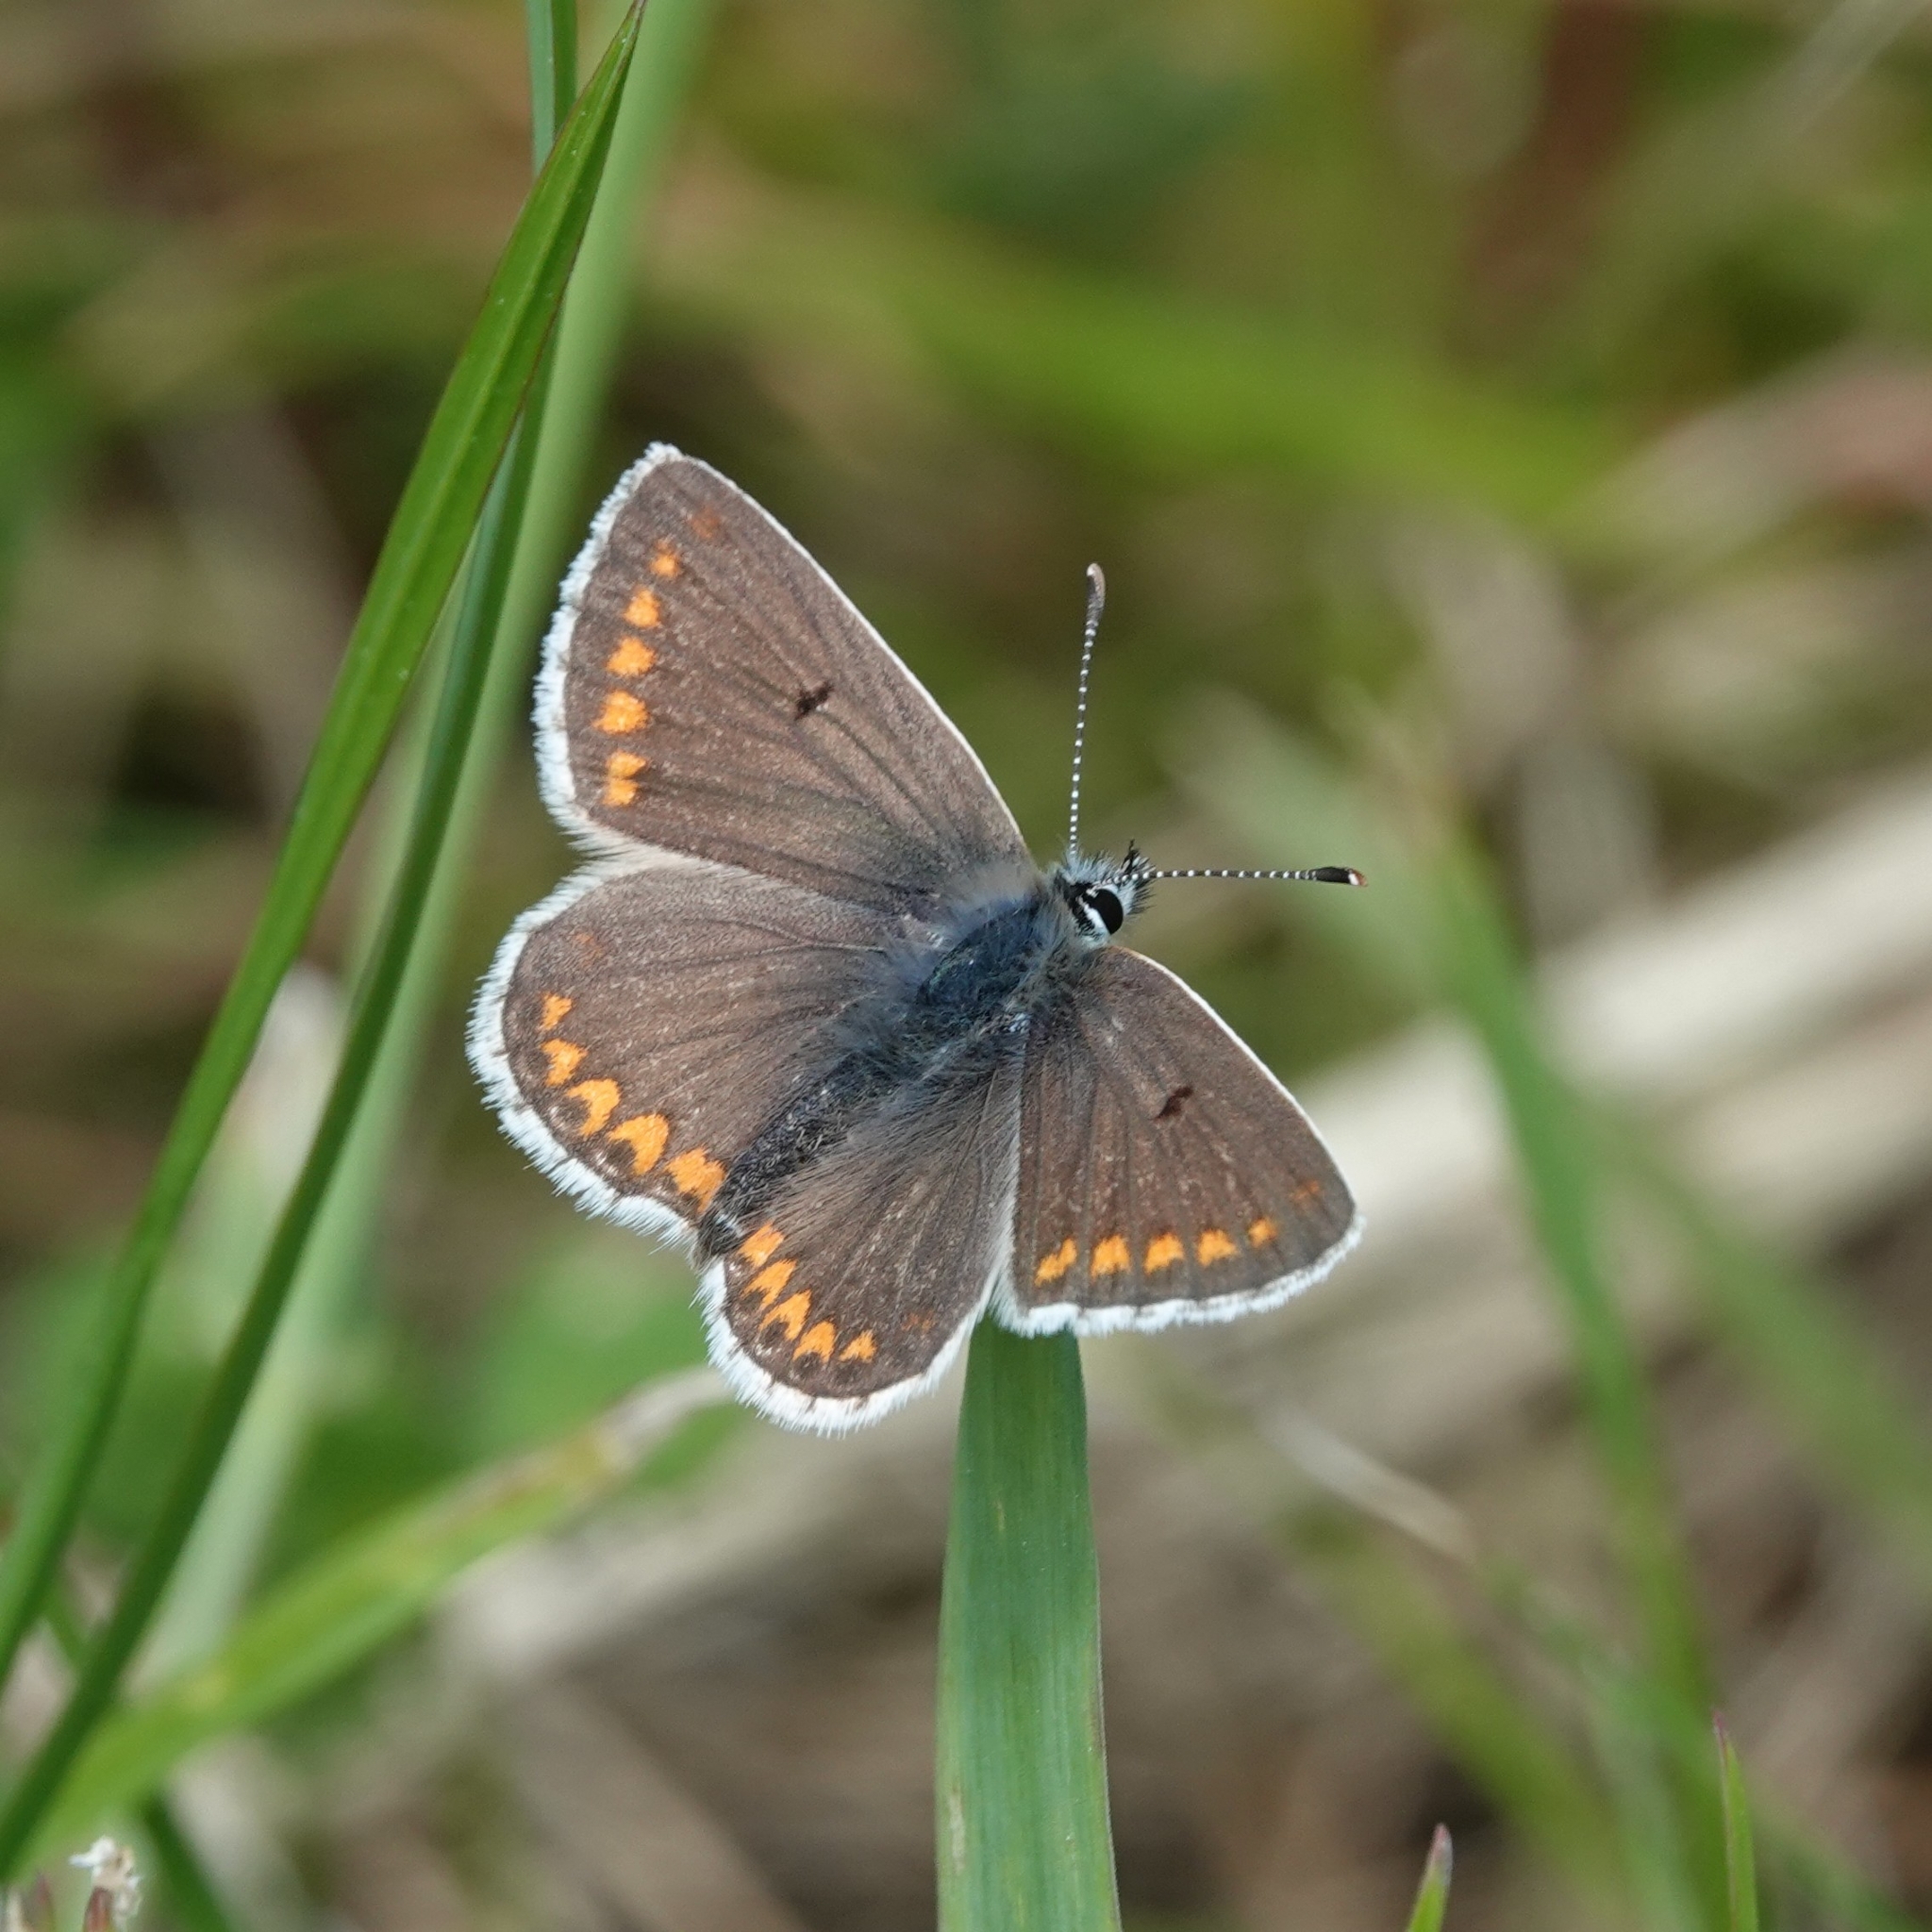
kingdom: Animalia
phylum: Arthropoda
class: Insecta
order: Lepidoptera
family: Lycaenidae
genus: Aricia
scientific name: Aricia agestis
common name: Brown argus
